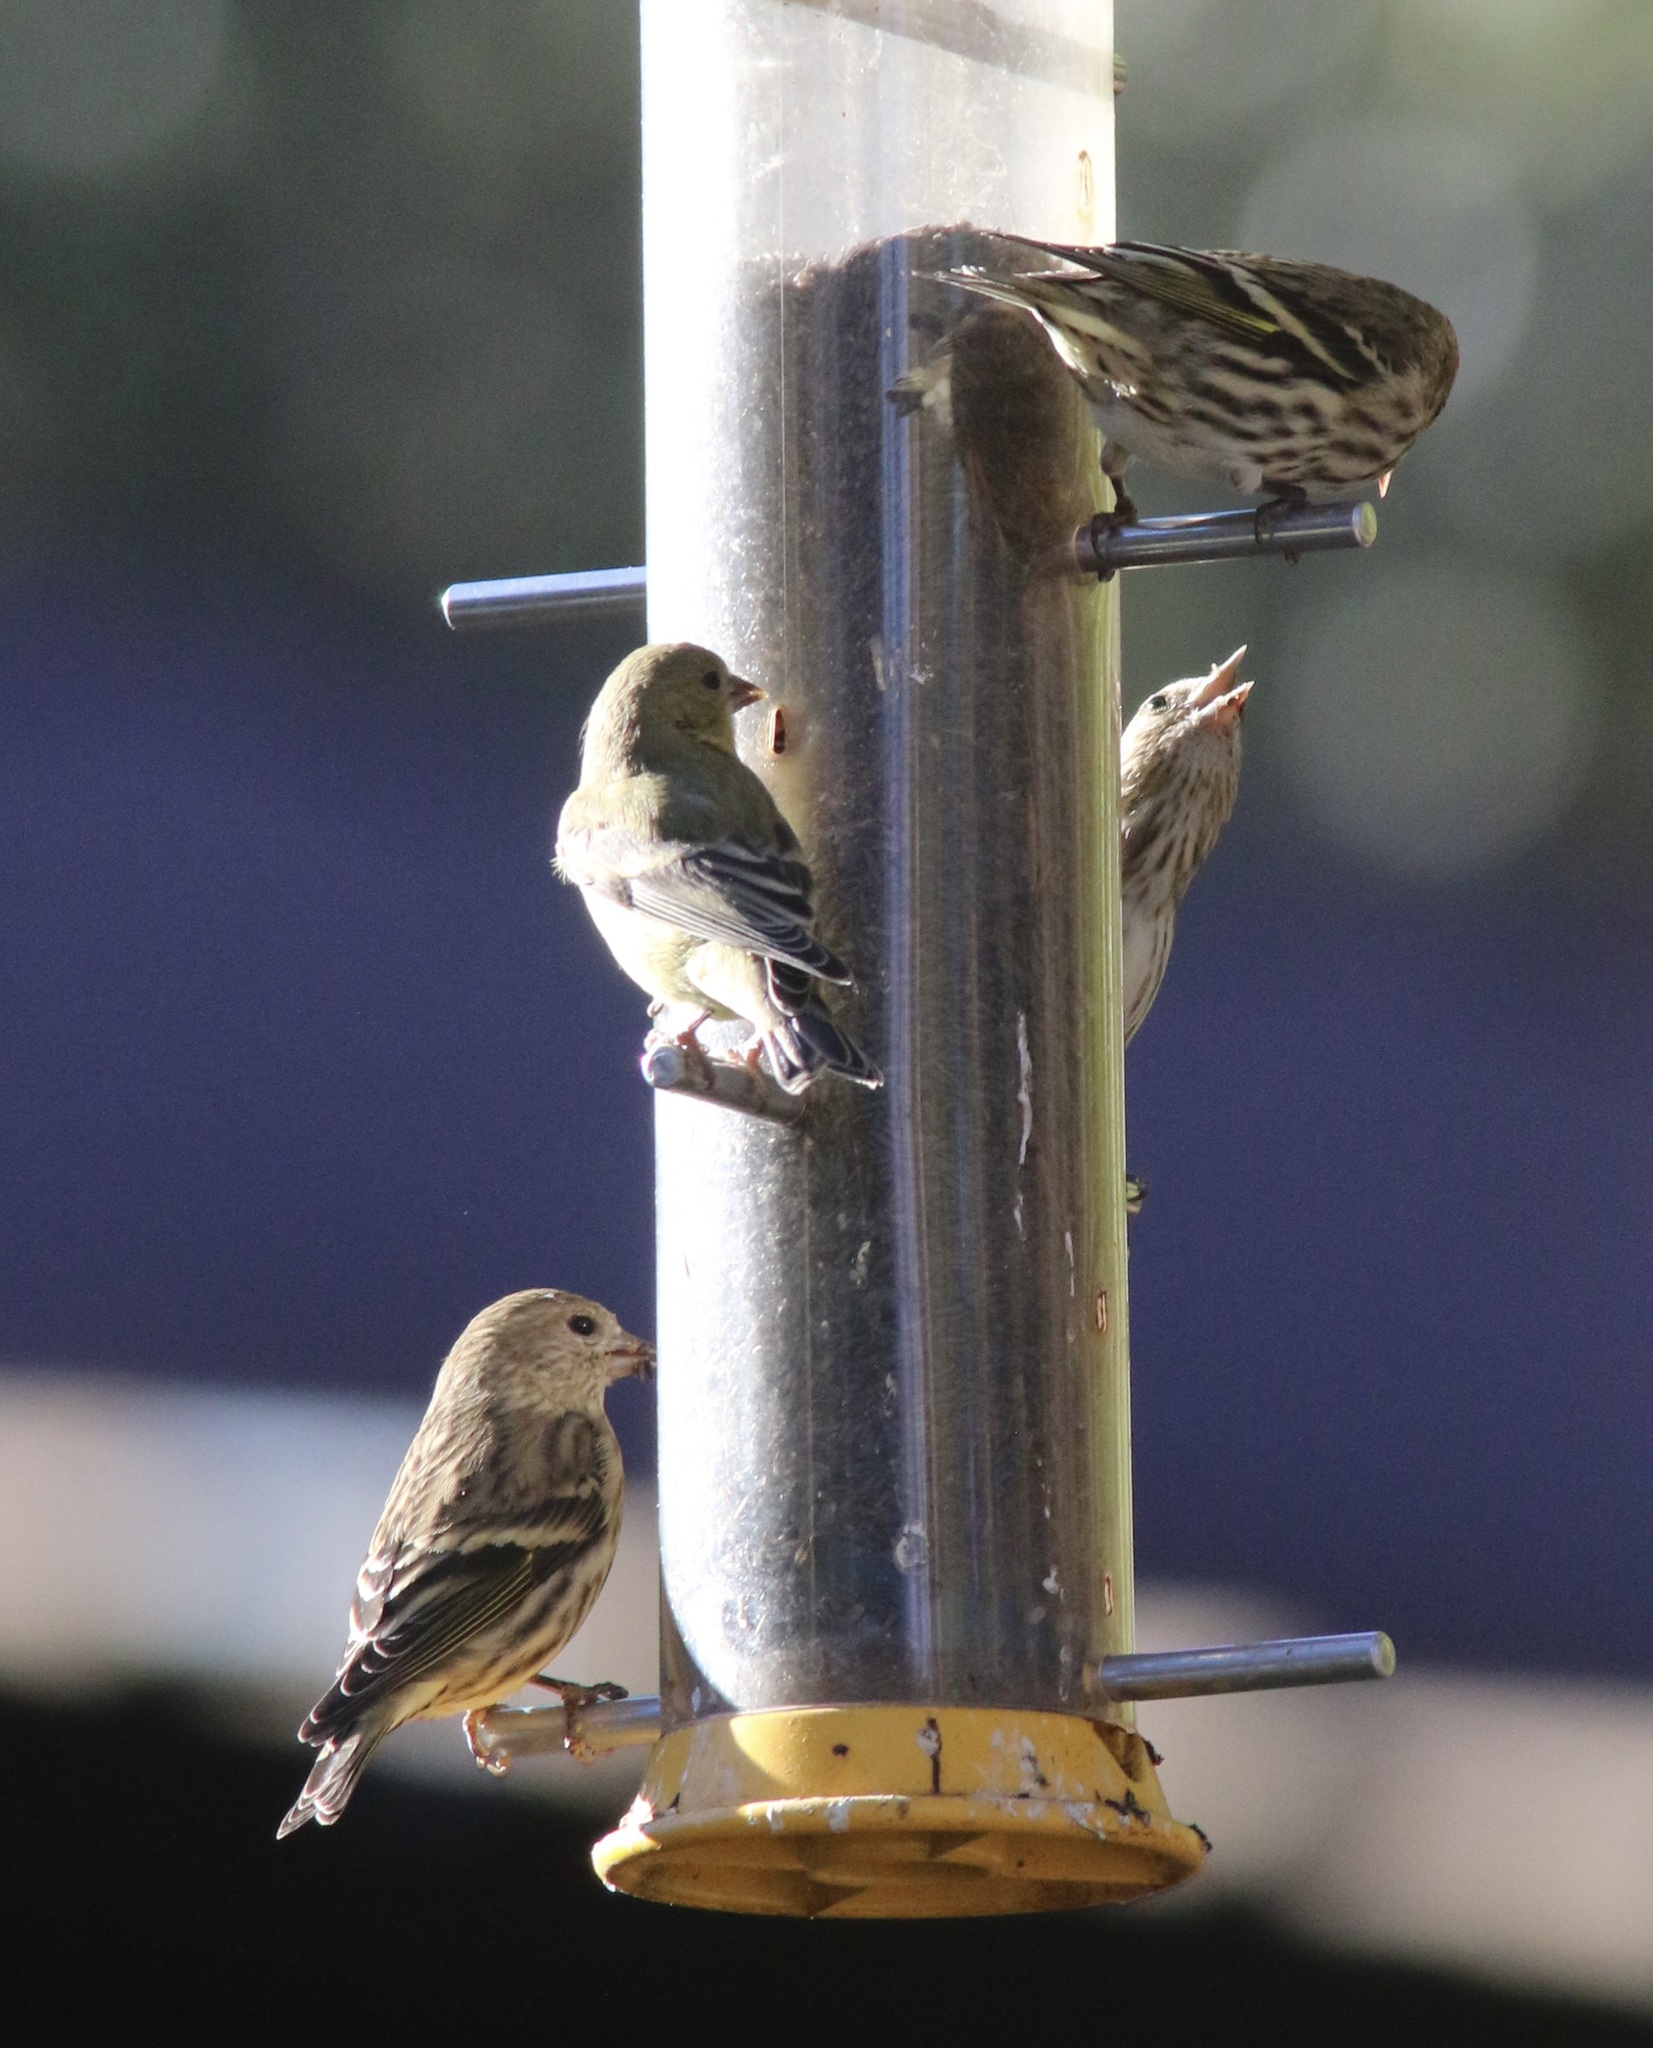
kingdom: Animalia
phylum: Chordata
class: Aves
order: Passeriformes
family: Fringillidae
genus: Spinus
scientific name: Spinus pinus
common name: Pine siskin
